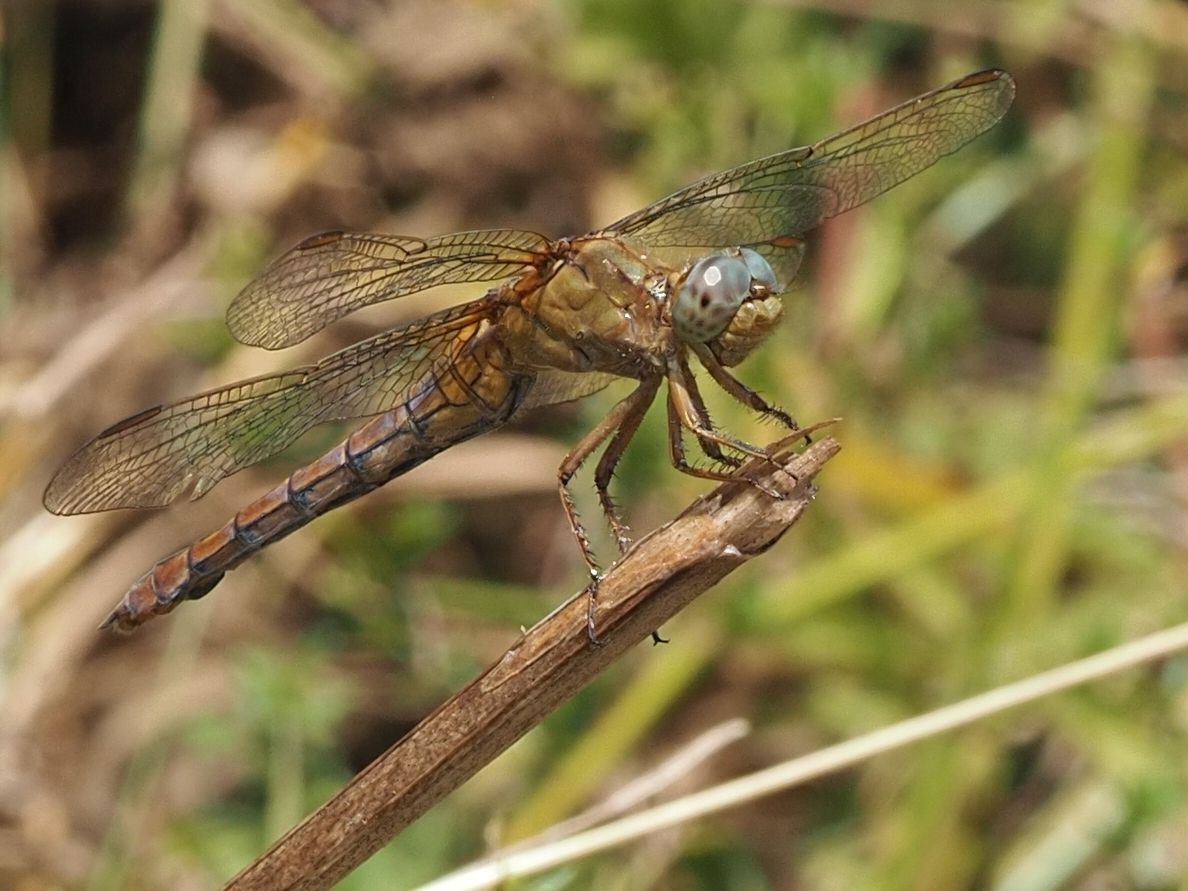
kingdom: Animalia
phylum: Arthropoda
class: Insecta
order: Odonata
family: Libellulidae
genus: Orthetrum
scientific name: Orthetrum coerulescens
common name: Keeled skimmer
